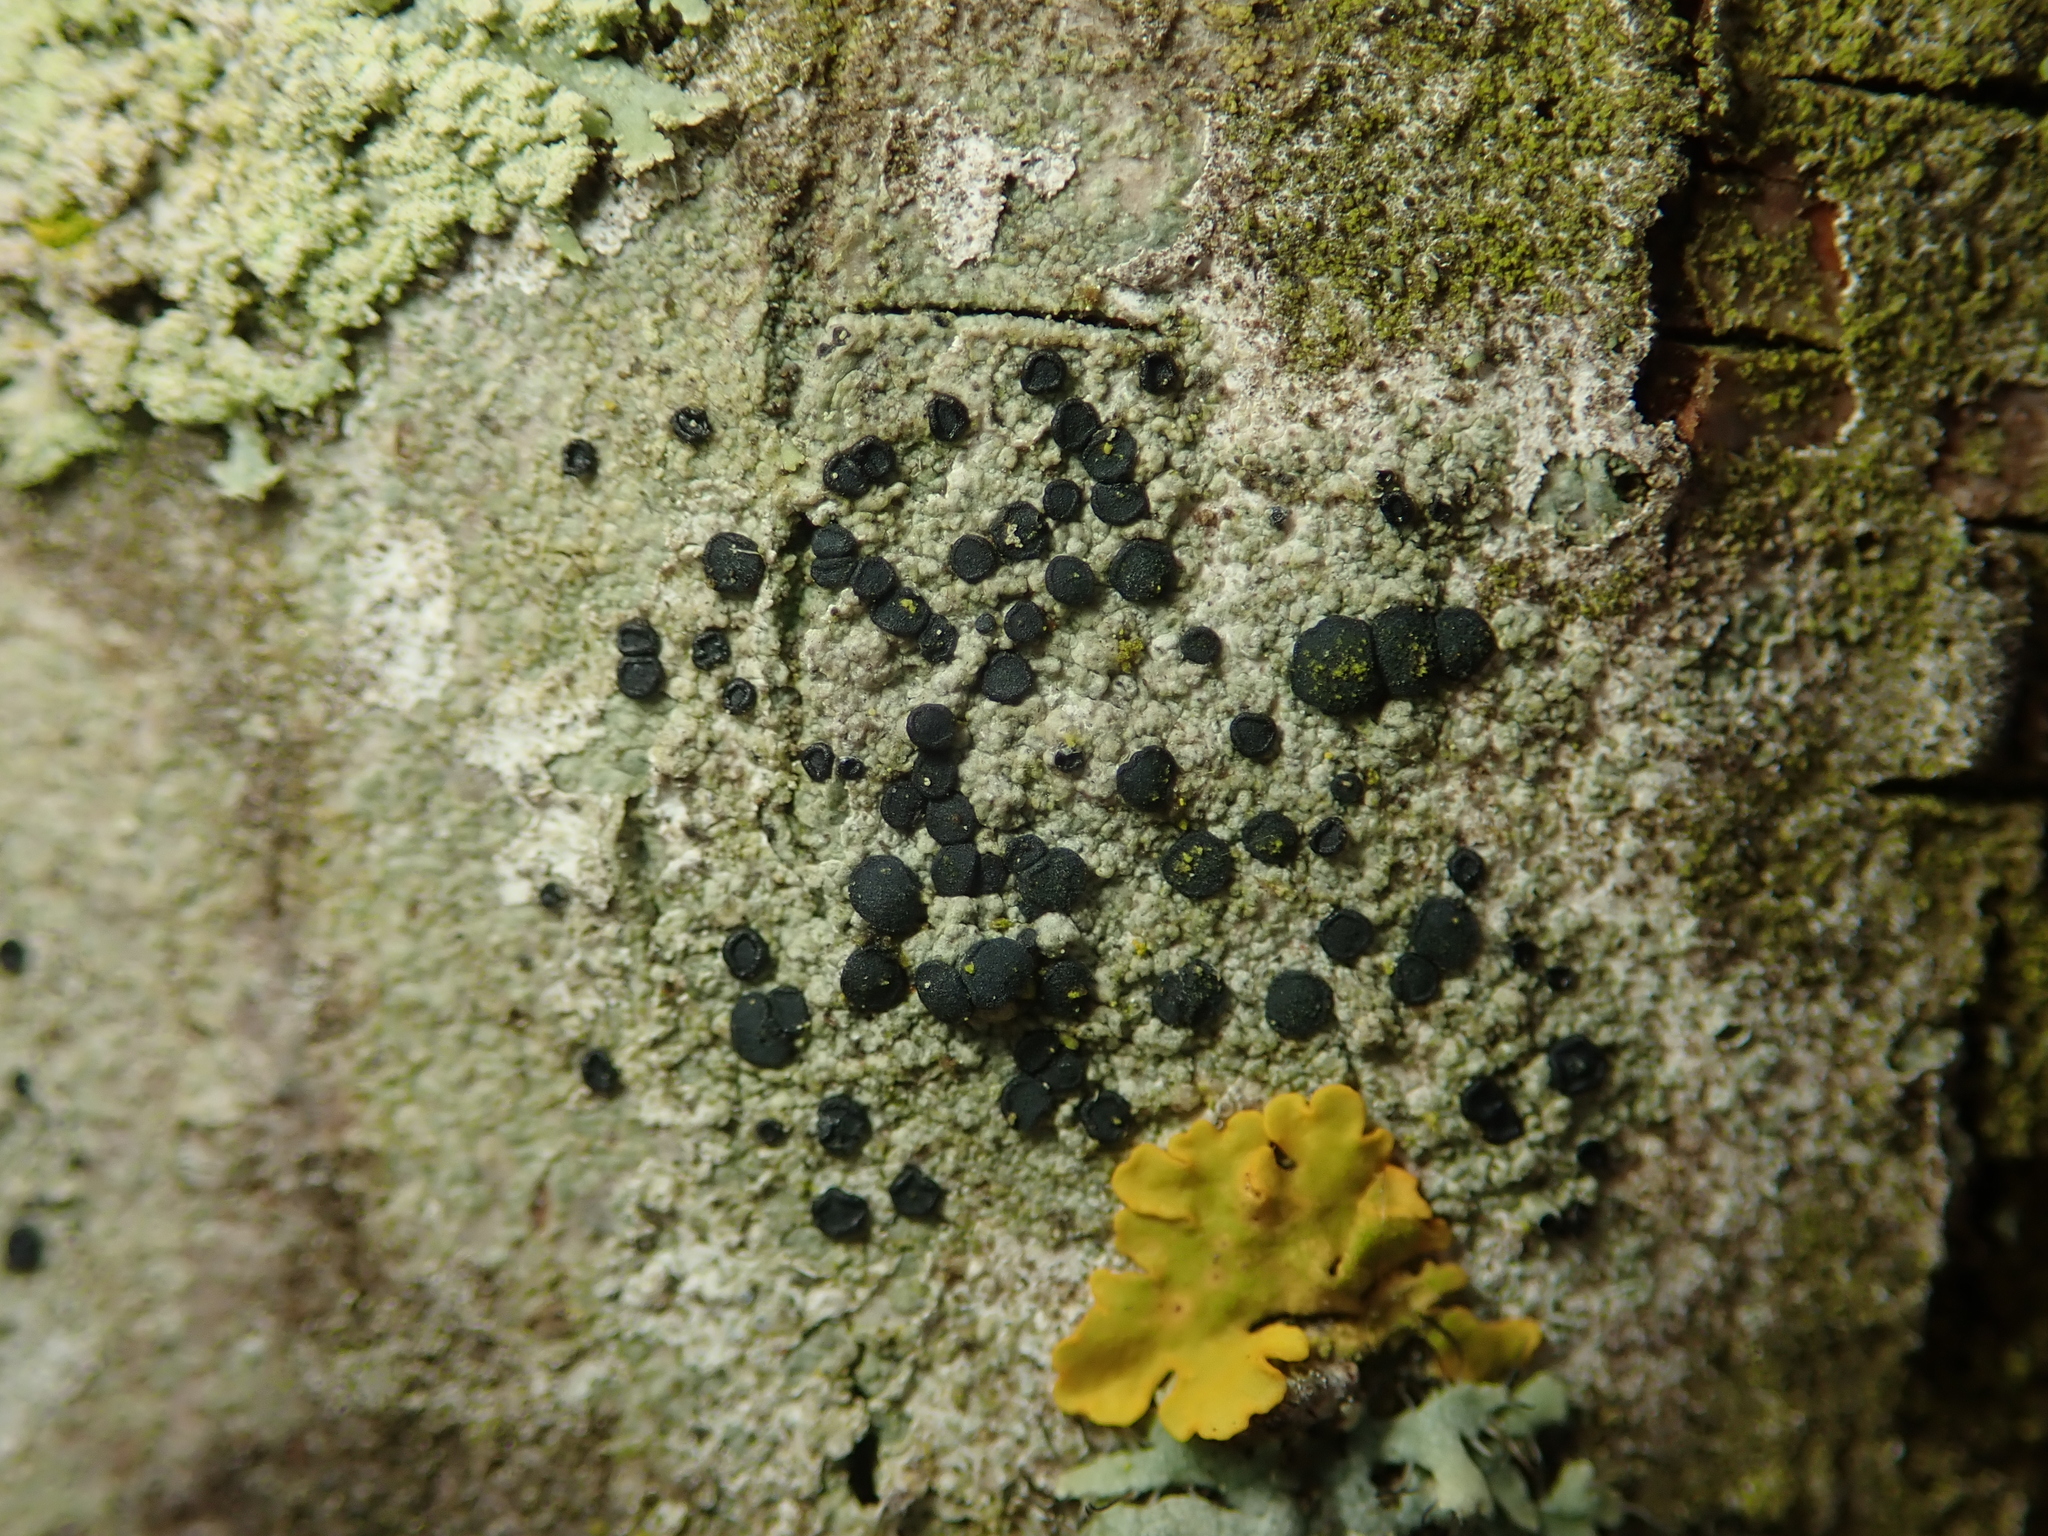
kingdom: Fungi
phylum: Ascomycota
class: Lecanoromycetes
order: Lecanorales
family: Lecanoraceae
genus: Lecidella
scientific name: Lecidella elaeochroma
